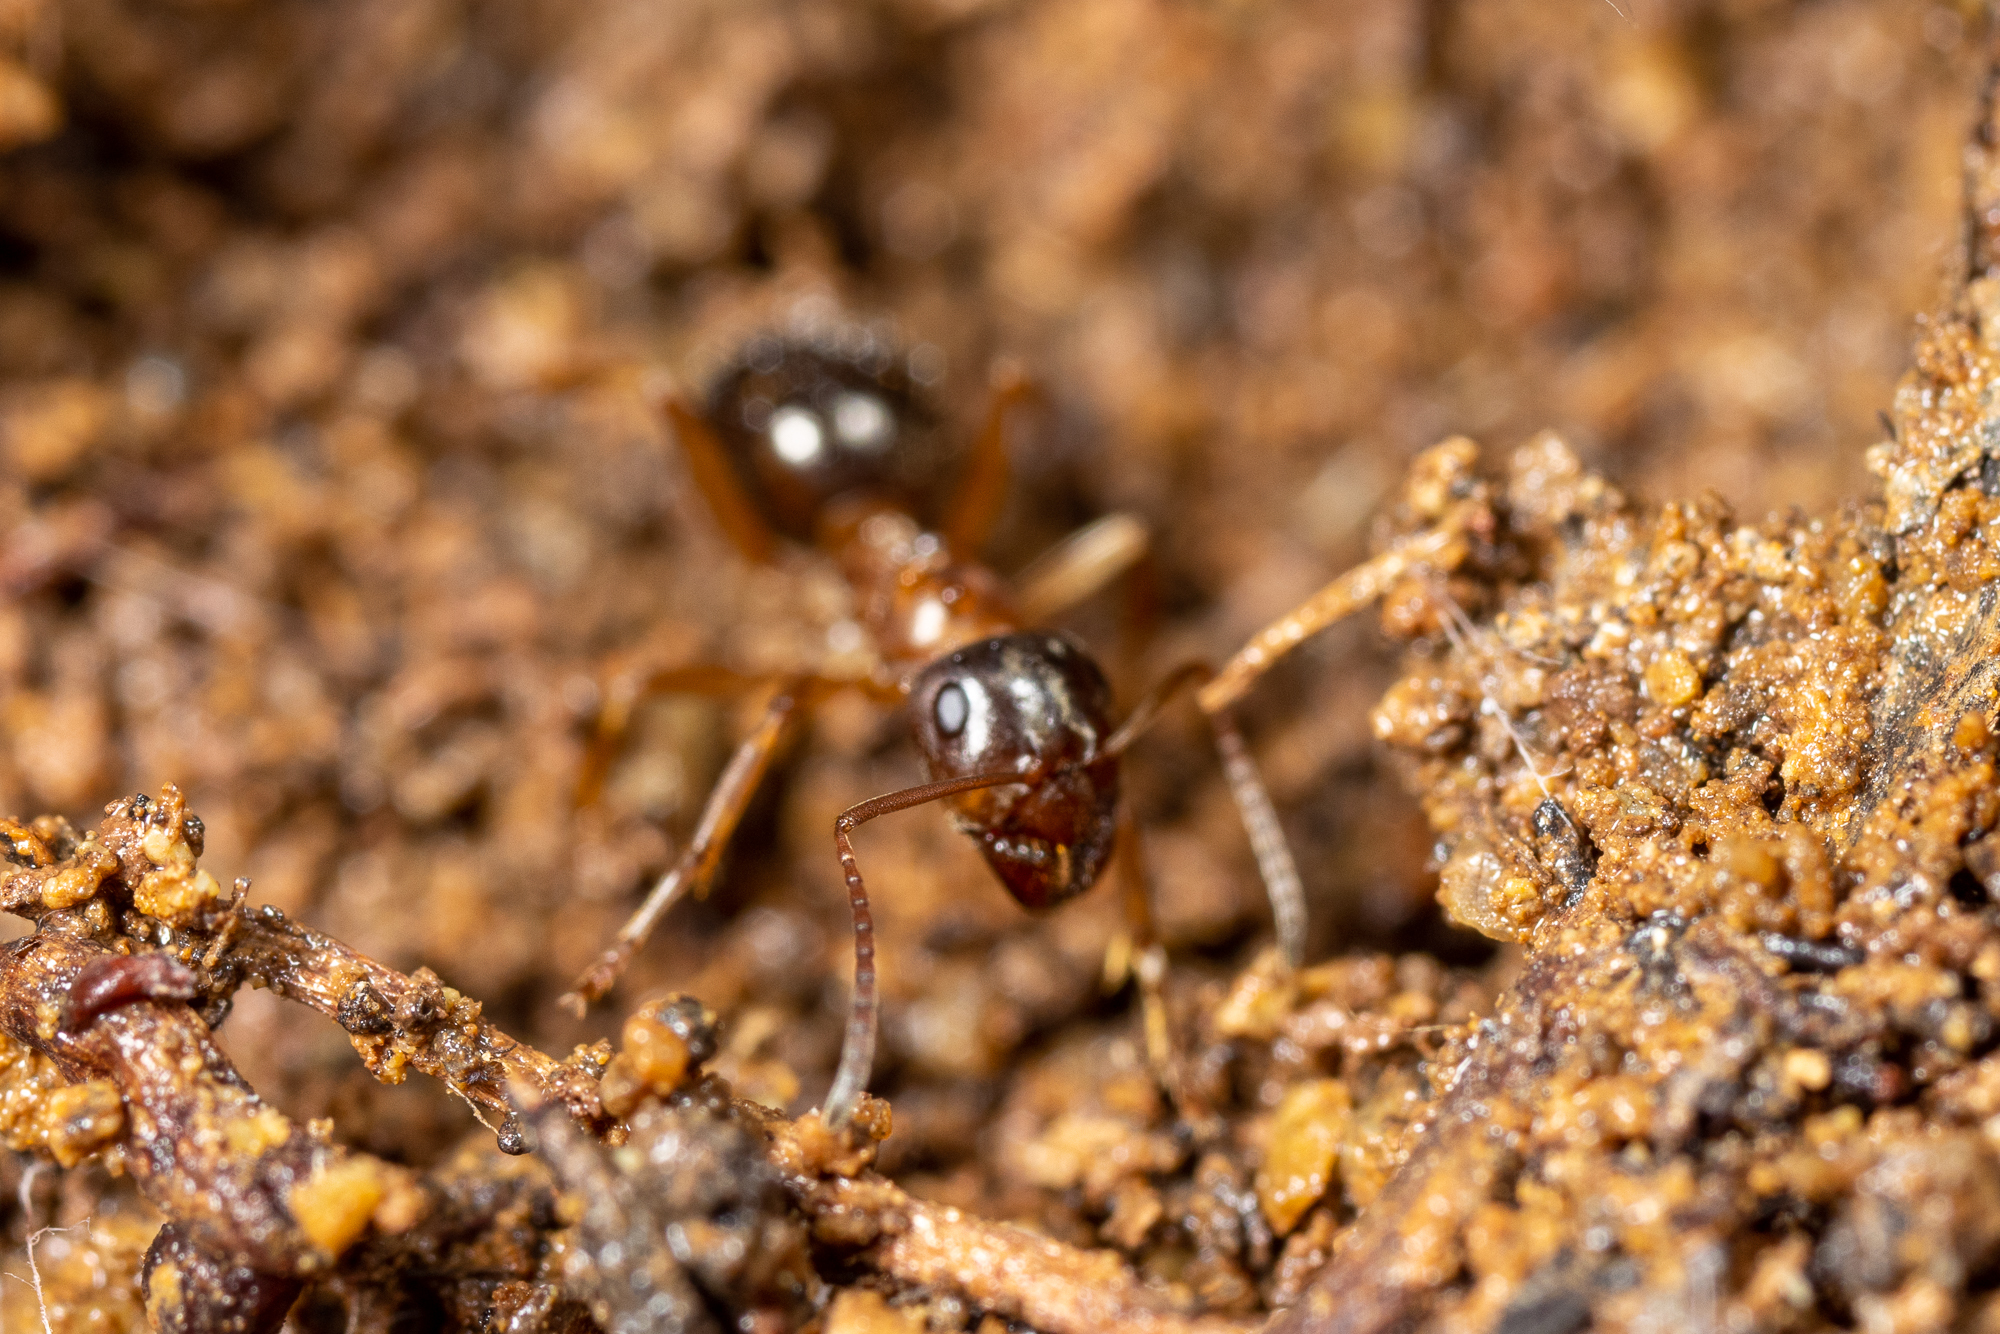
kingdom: Animalia
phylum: Arthropoda
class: Insecta
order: Hymenoptera
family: Formicidae
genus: Formica
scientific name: Formica subpolita
